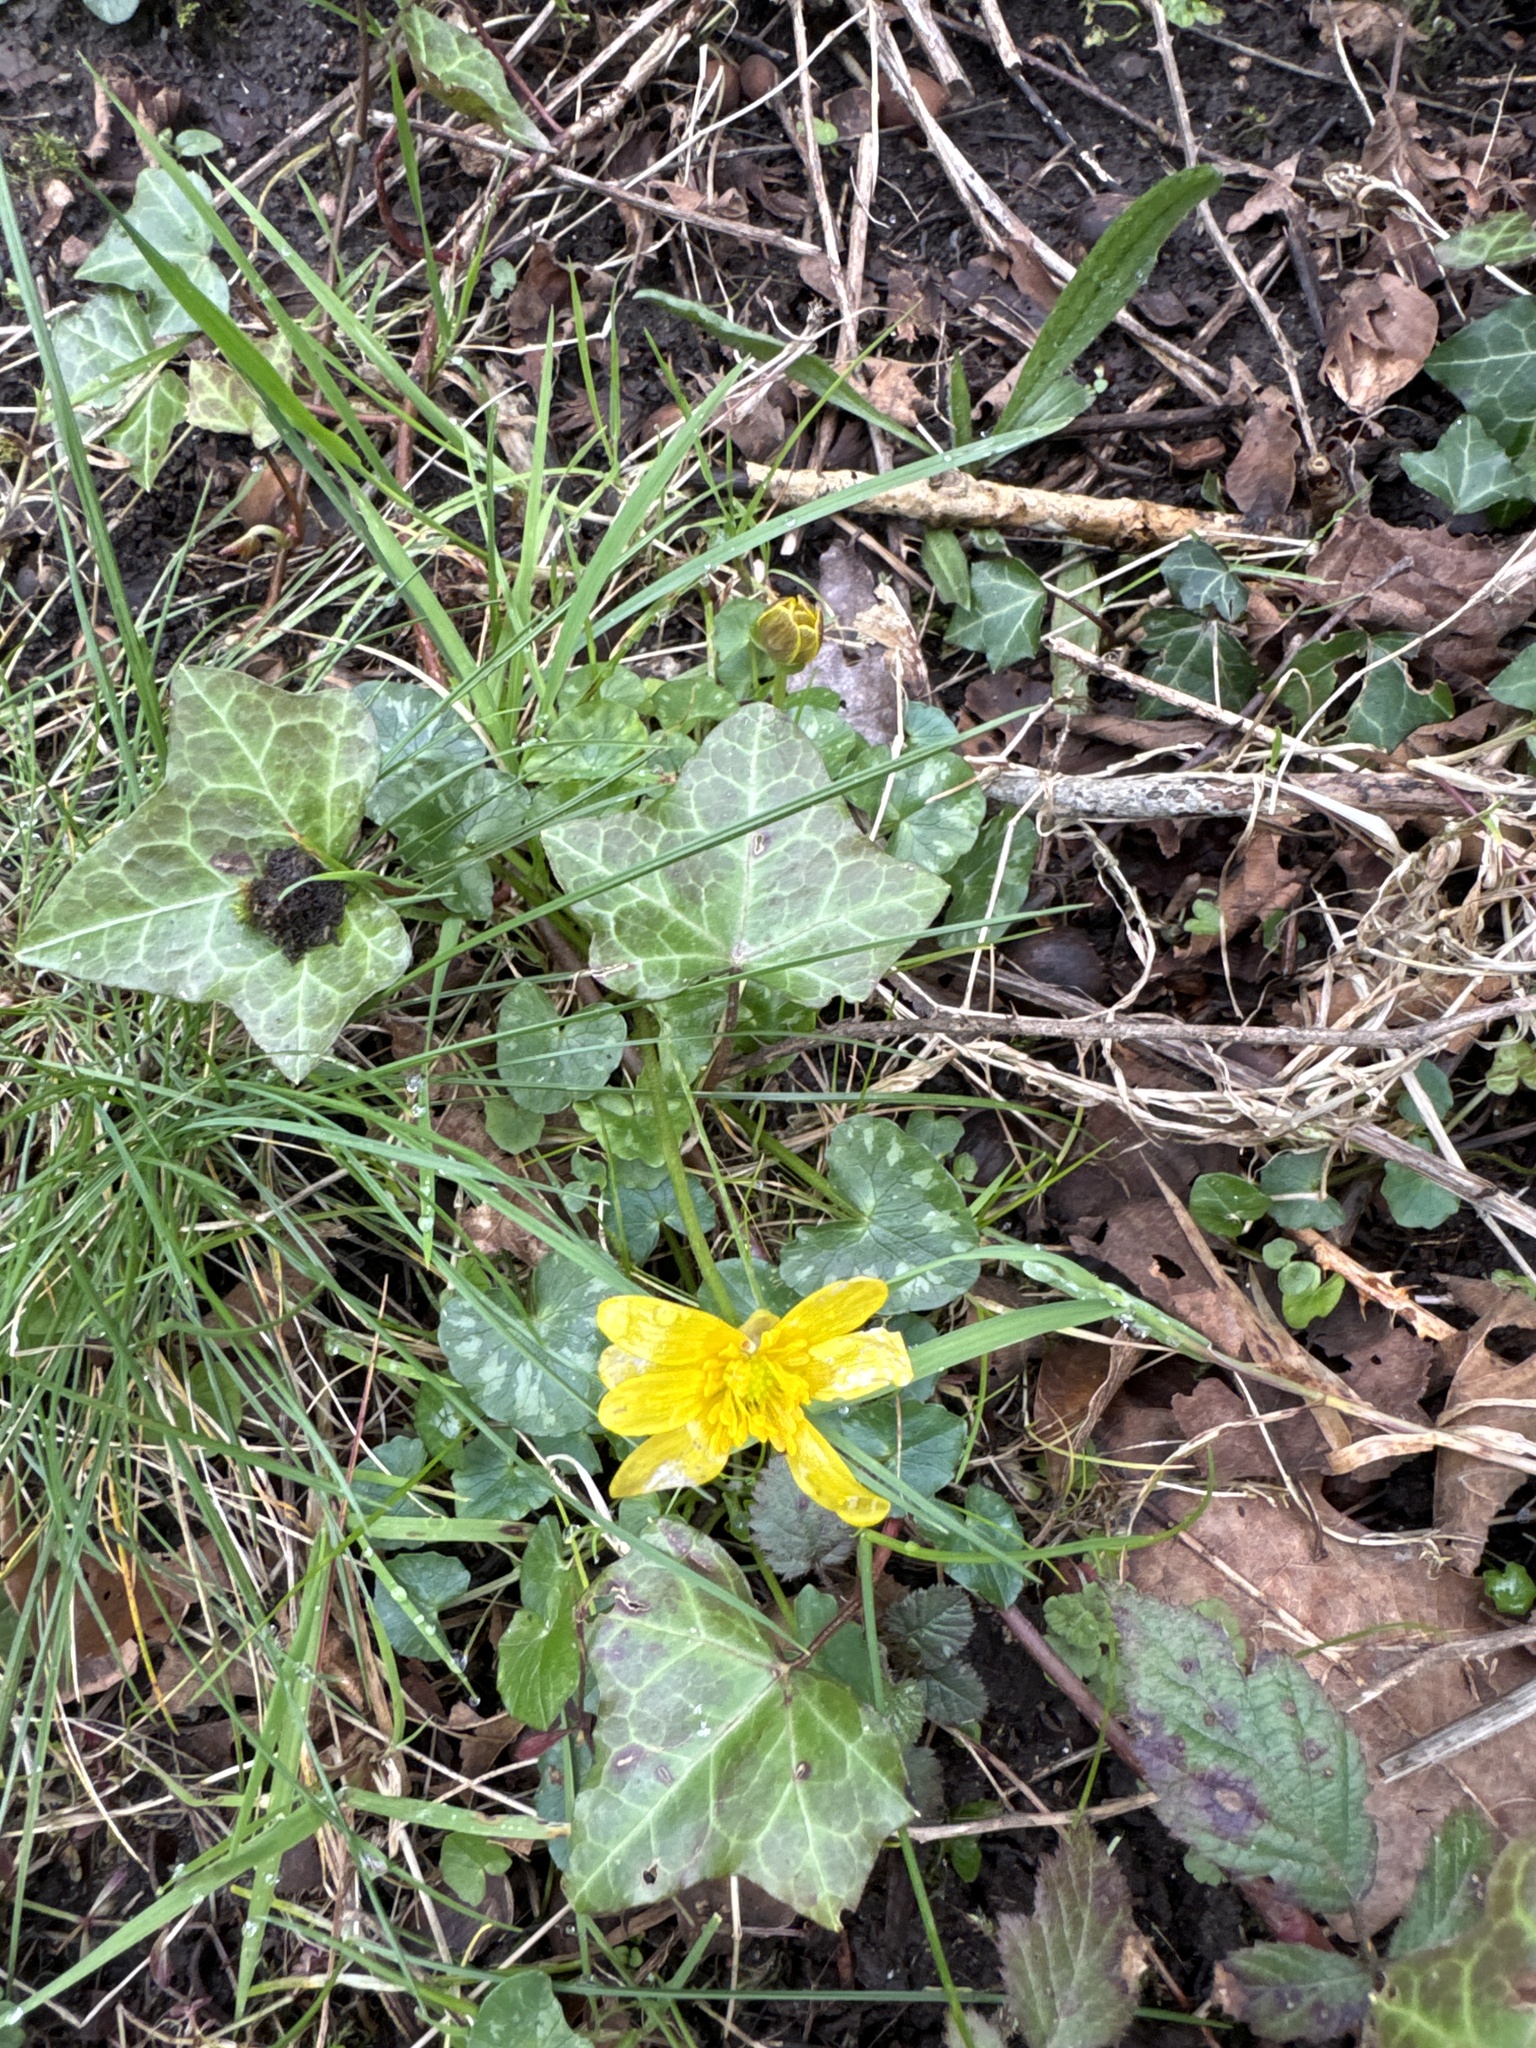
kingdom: Plantae
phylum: Tracheophyta
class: Magnoliopsida
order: Ranunculales
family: Ranunculaceae
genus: Ficaria
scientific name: Ficaria verna
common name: Lesser celandine
